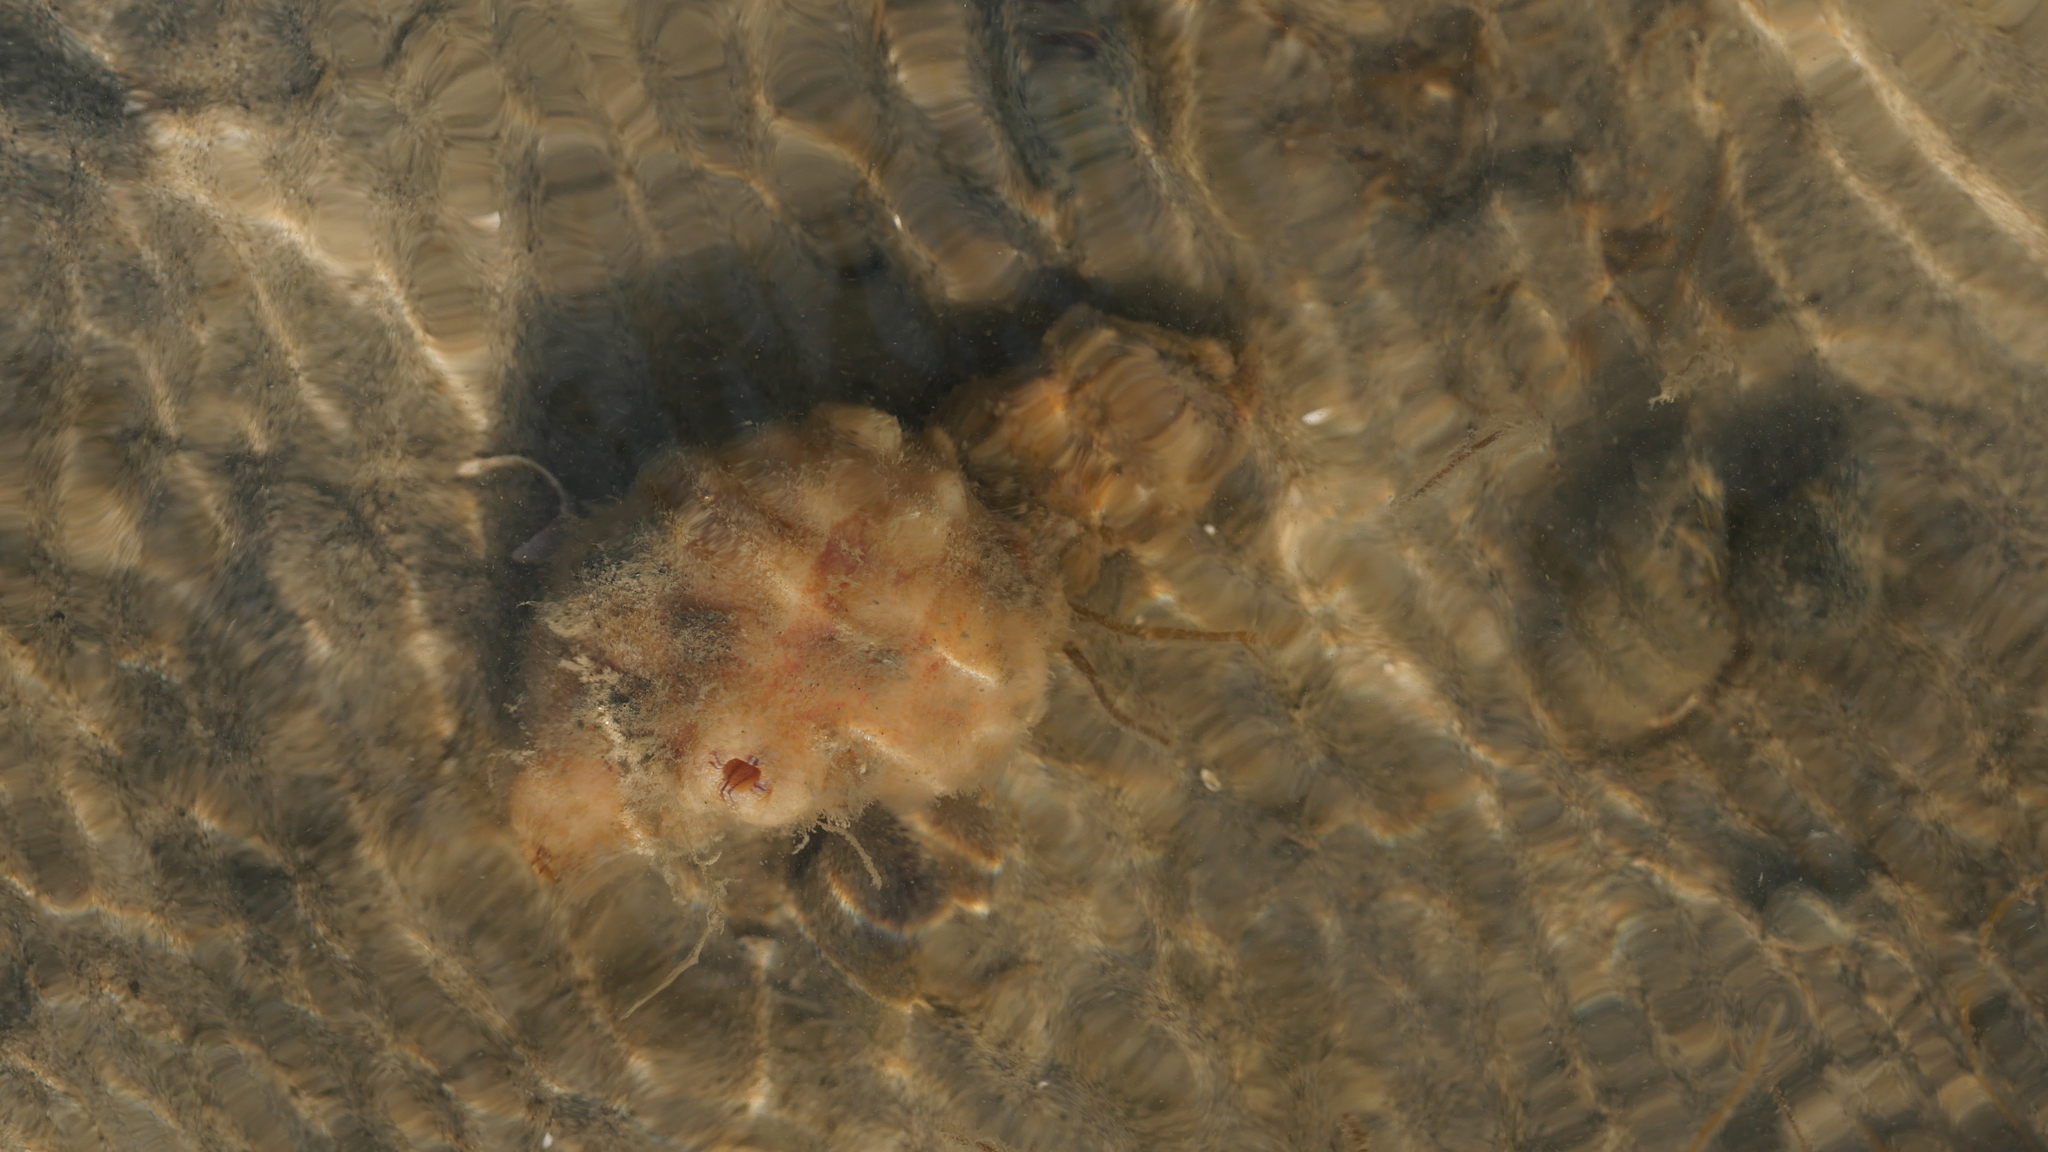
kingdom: Animalia
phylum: Chordata
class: Ascidiacea
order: Stolidobranchia
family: Styelidae
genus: Styela
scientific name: Styela plicata
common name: Pleated tunicate
